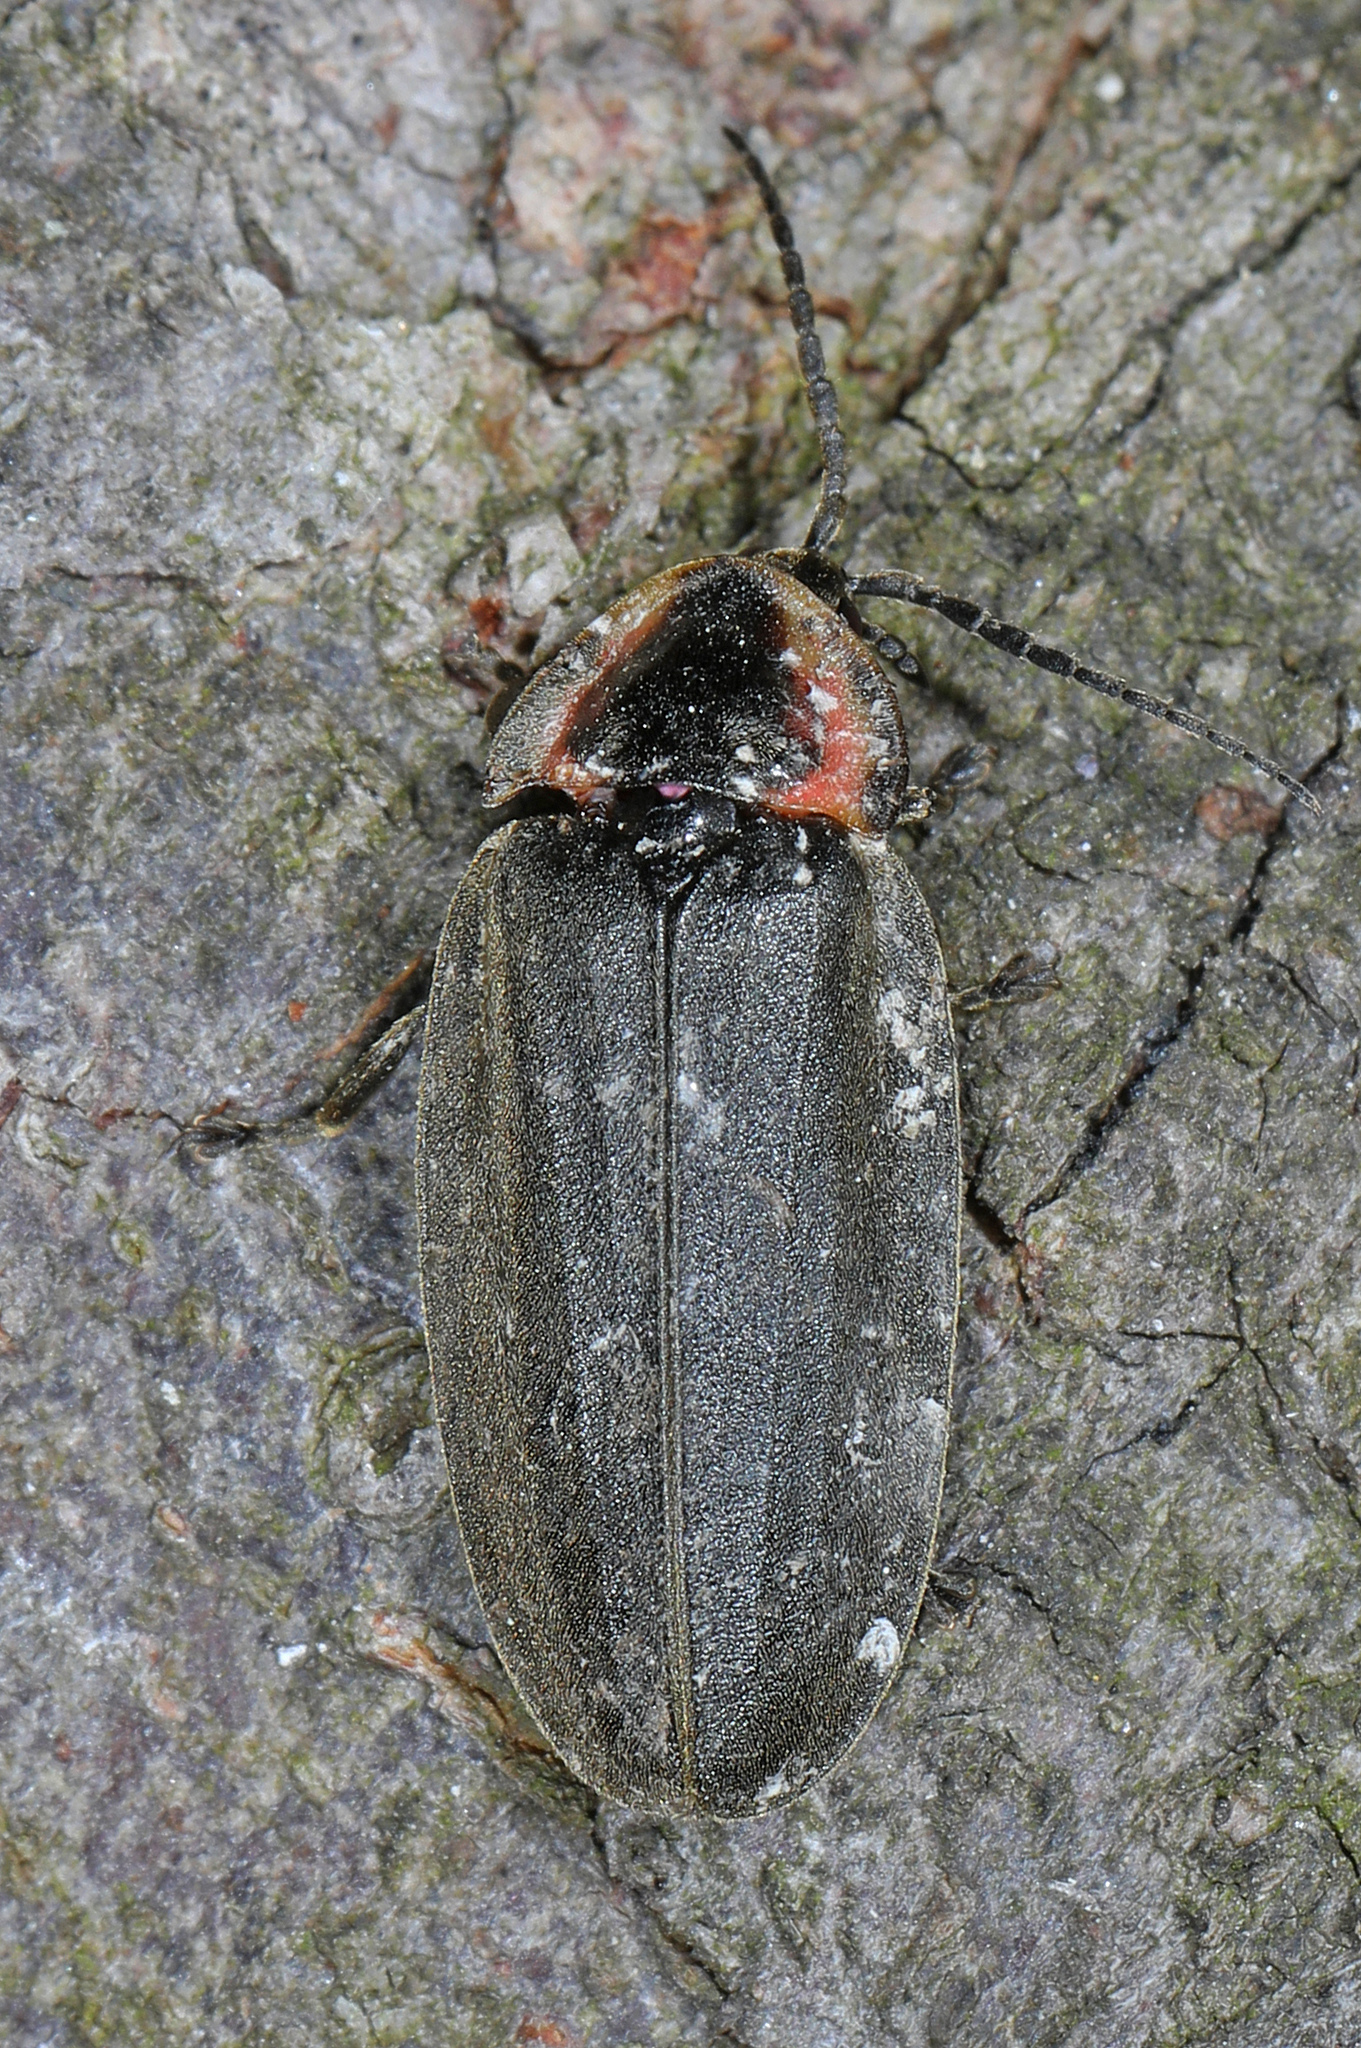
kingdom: Animalia
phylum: Arthropoda
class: Insecta
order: Coleoptera
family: Lampyridae
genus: Photinus
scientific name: Photinus corrusca
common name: Winter firefly
